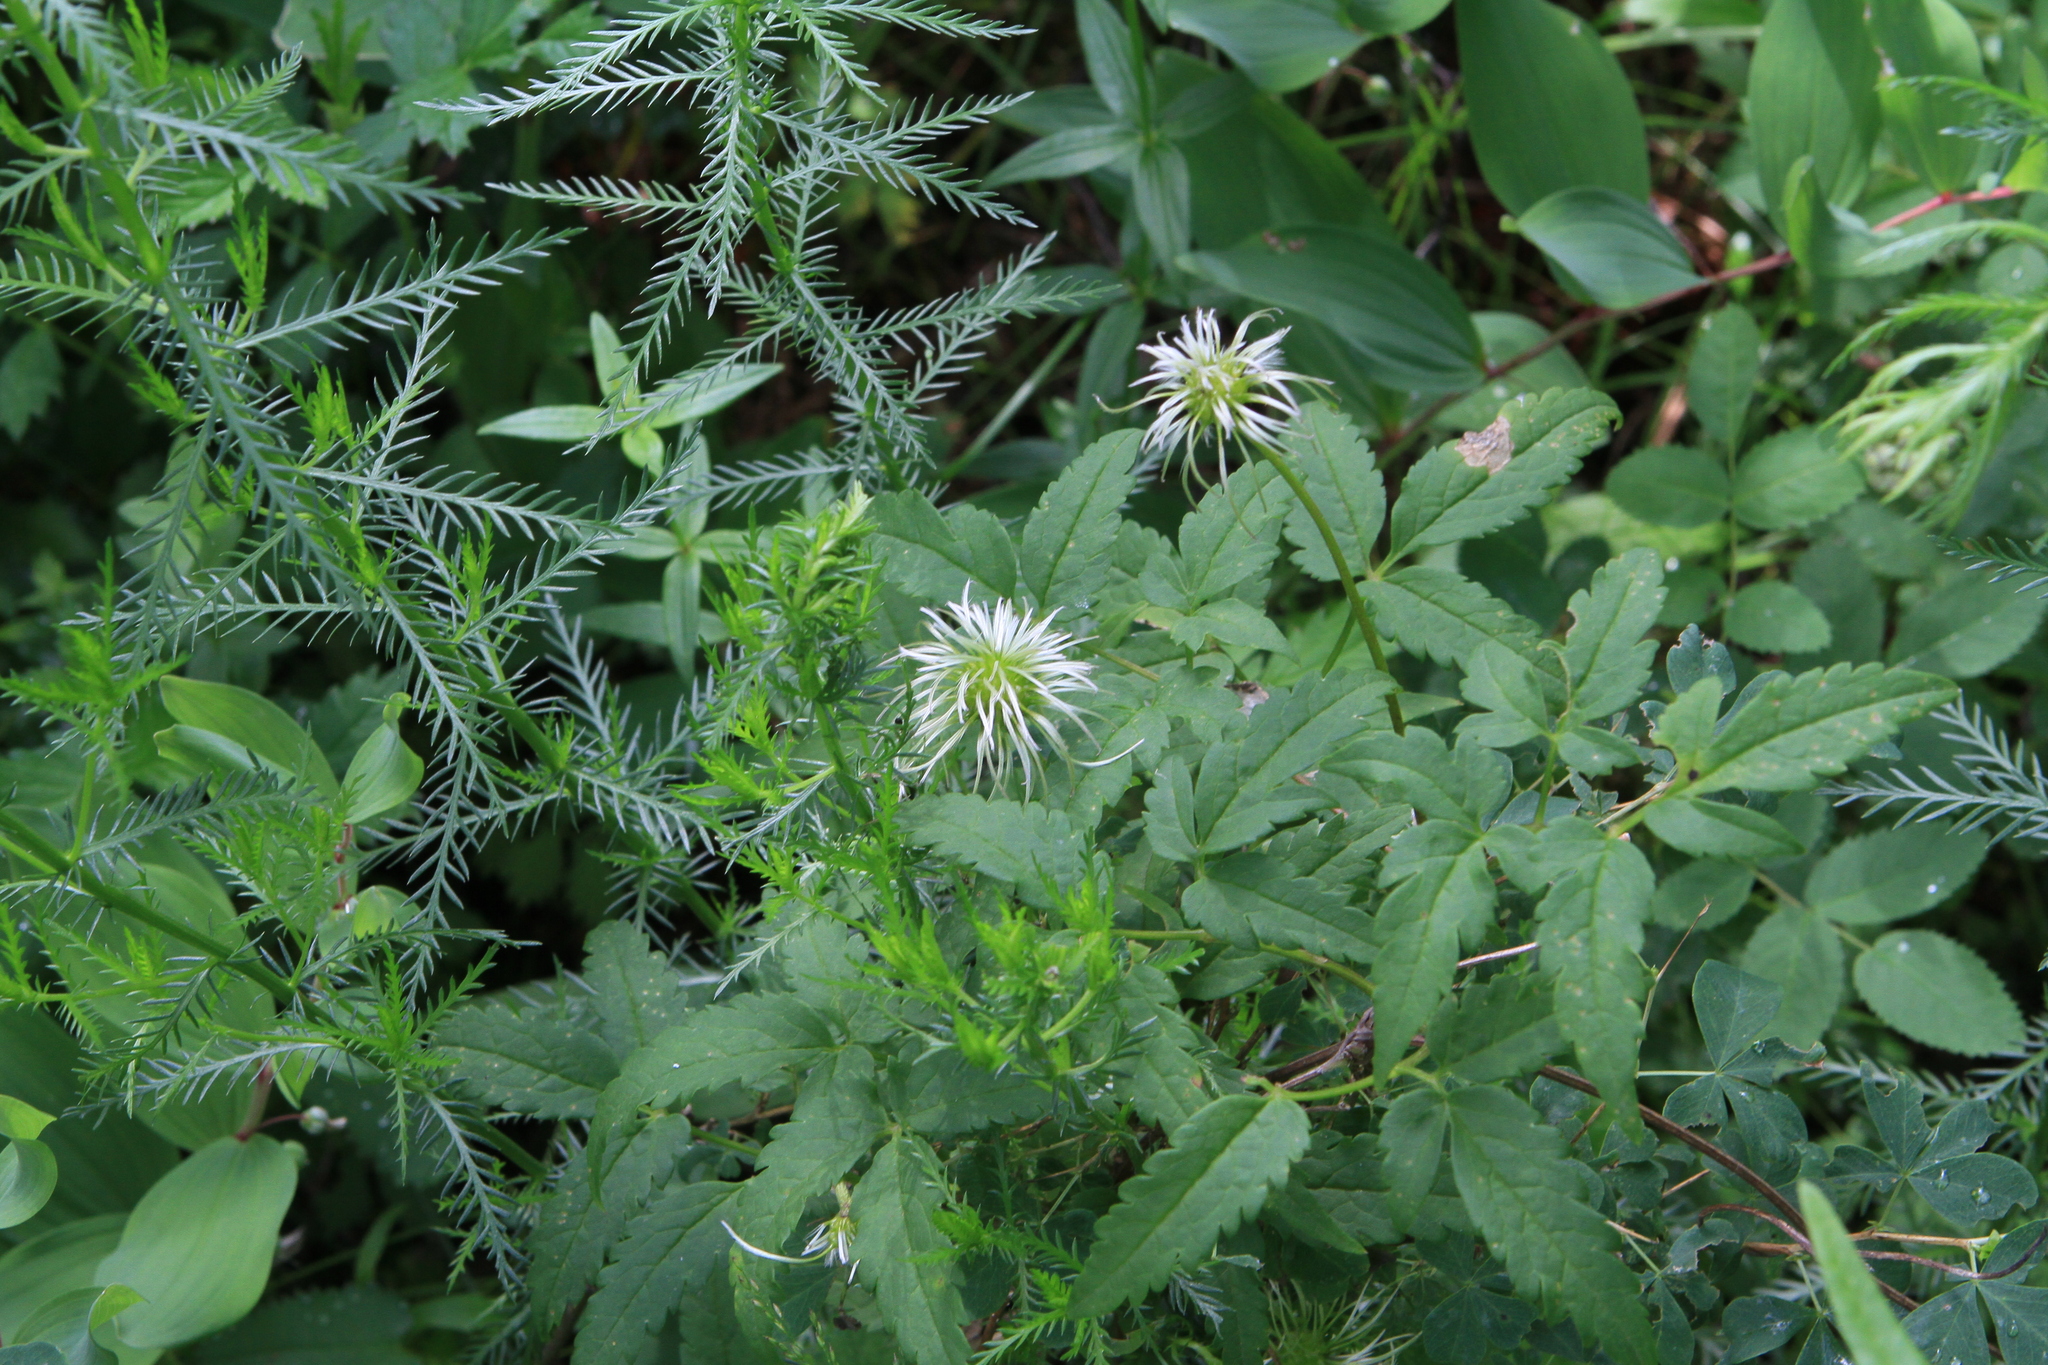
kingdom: Plantae
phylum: Tracheophyta
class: Magnoliopsida
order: Ranunculales
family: Ranunculaceae
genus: Clematis
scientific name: Clematis sibirica
